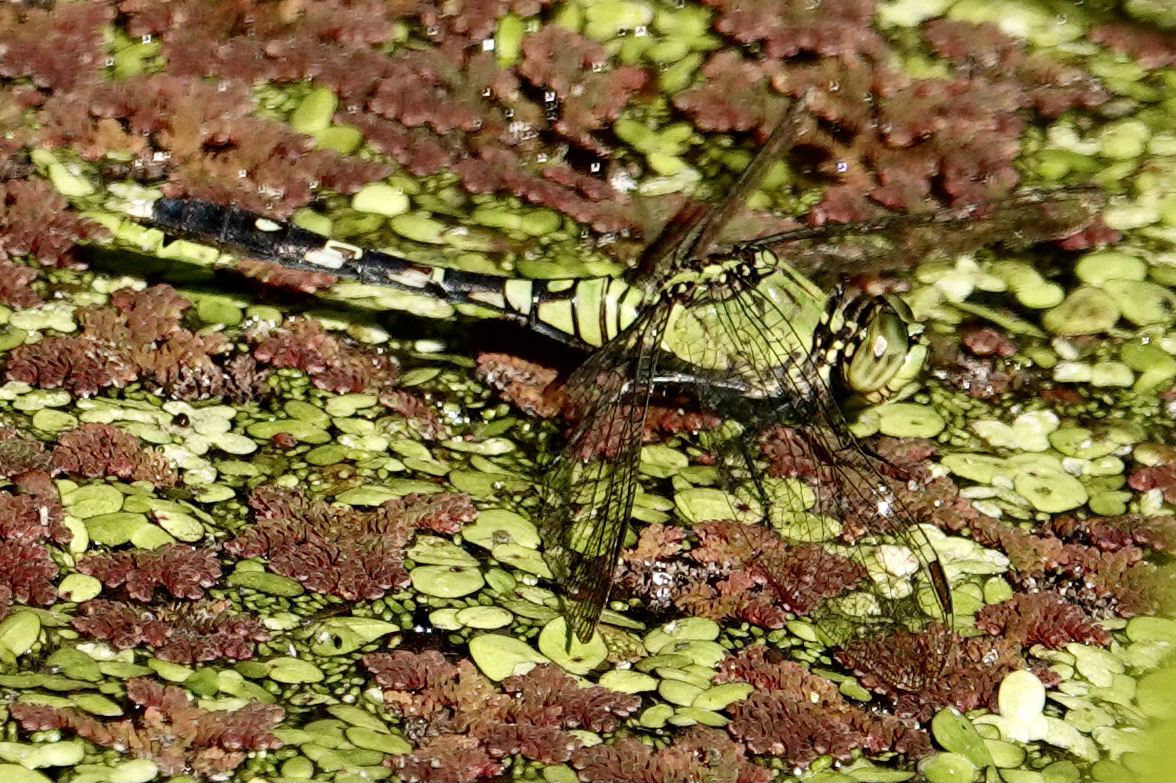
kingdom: Animalia
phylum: Arthropoda
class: Insecta
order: Odonata
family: Libellulidae
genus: Erythemis
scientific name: Erythemis simplicicollis
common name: Eastern pondhawk
